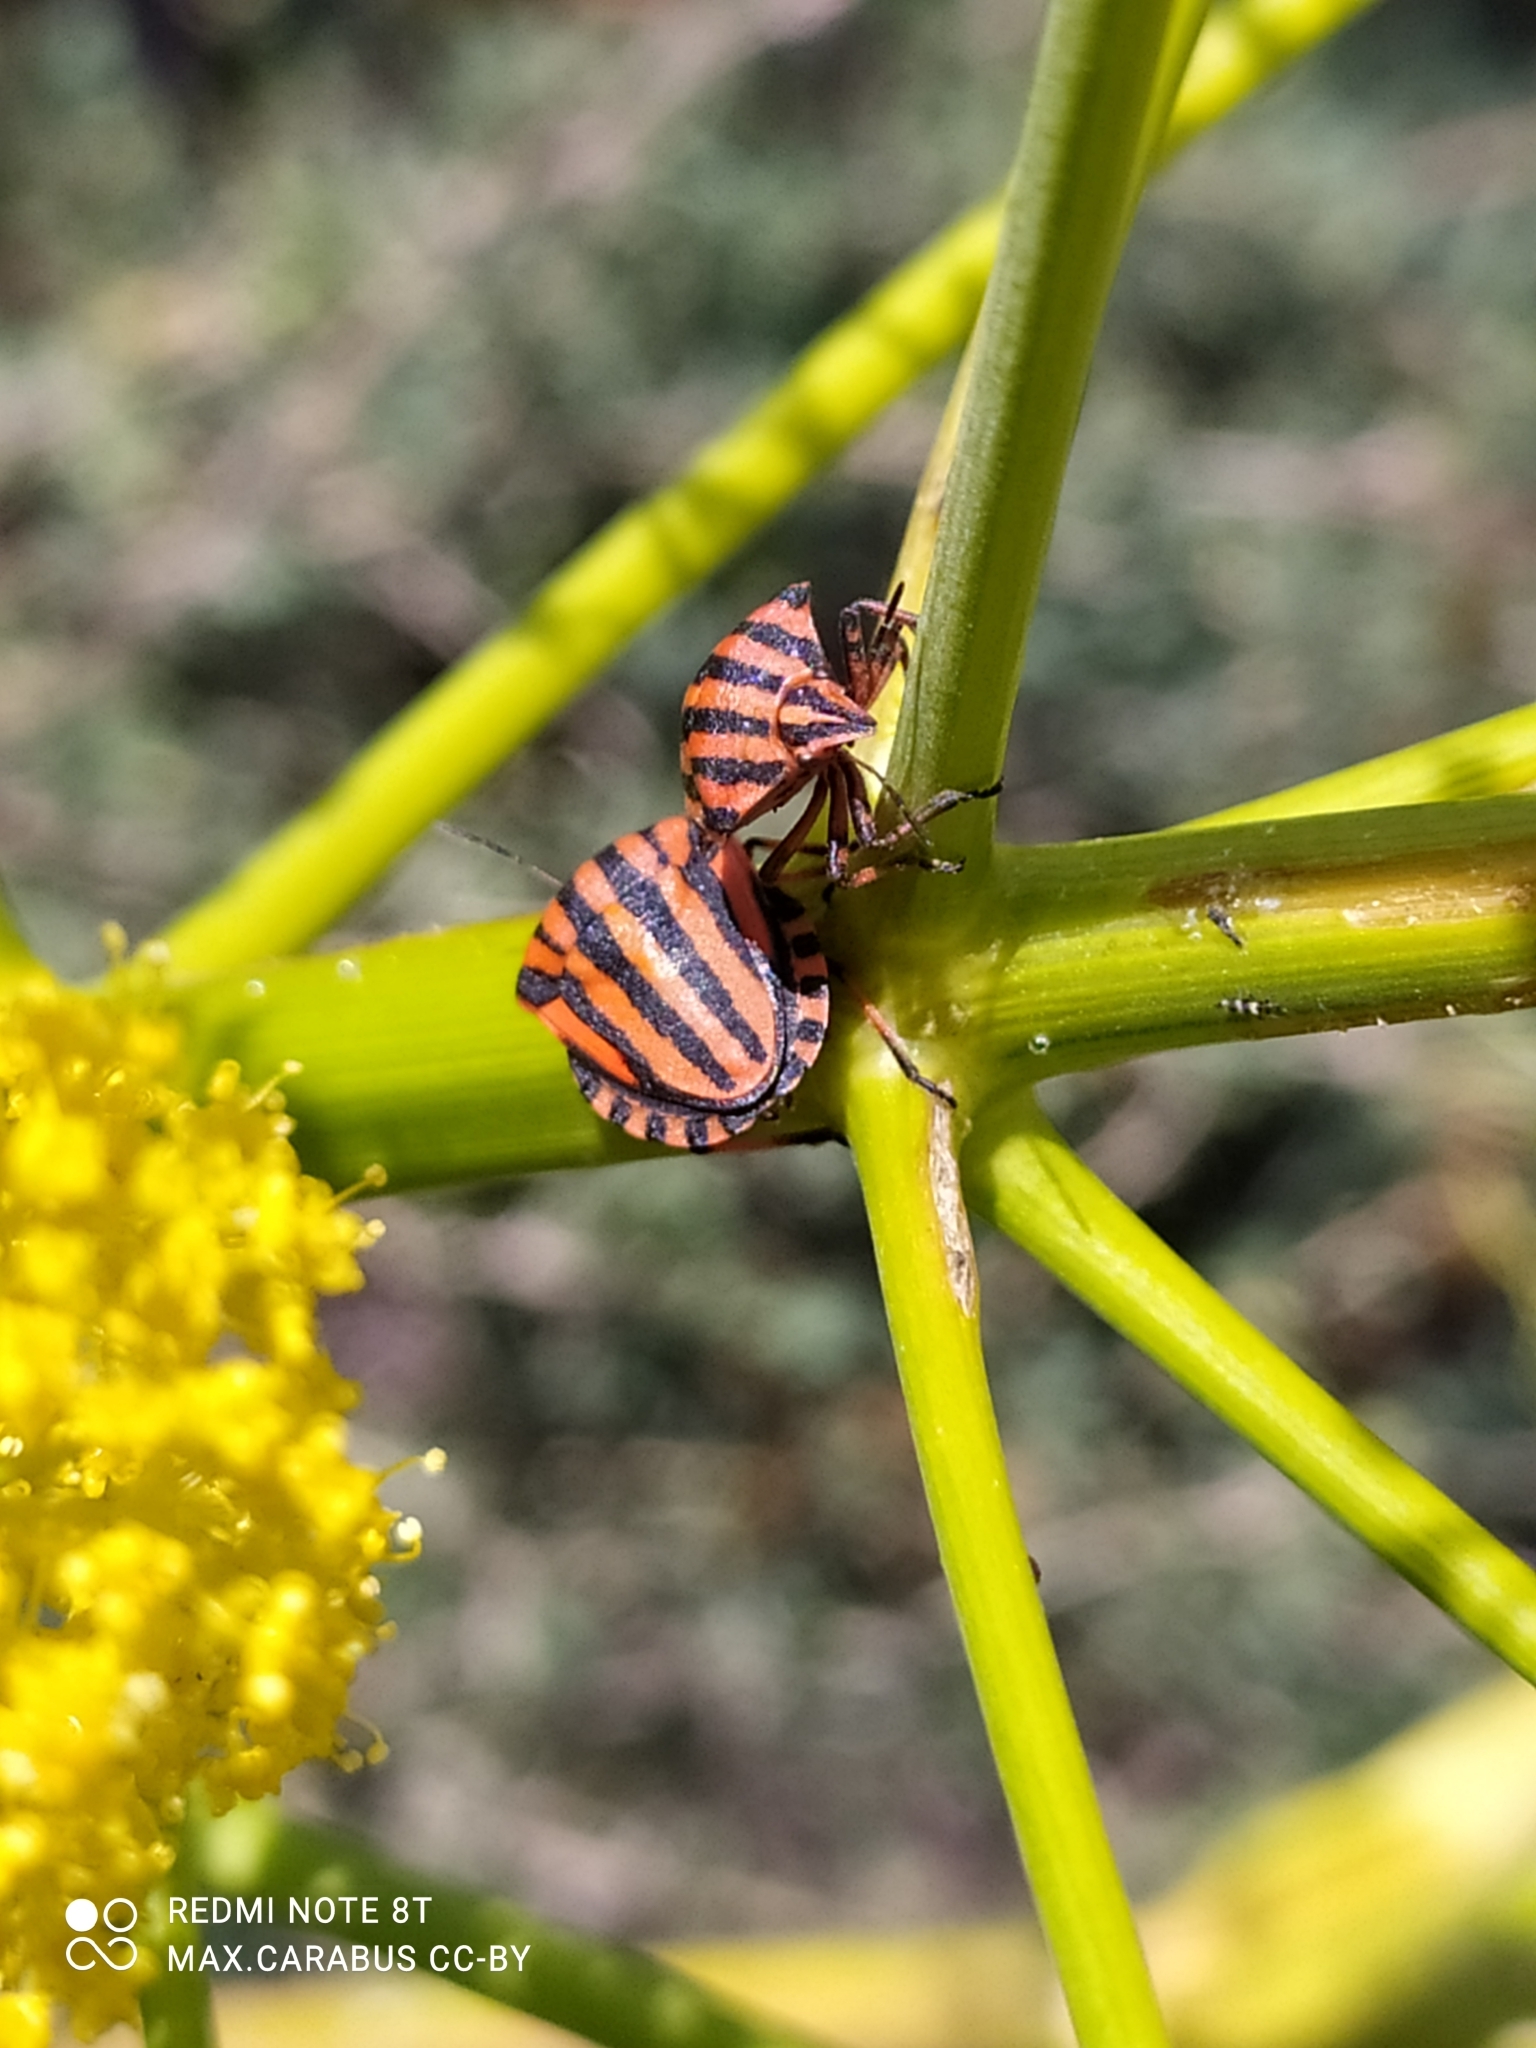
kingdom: Animalia
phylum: Arthropoda
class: Insecta
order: Hemiptera
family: Pentatomidae
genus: Graphosoma
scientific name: Graphosoma italicum
